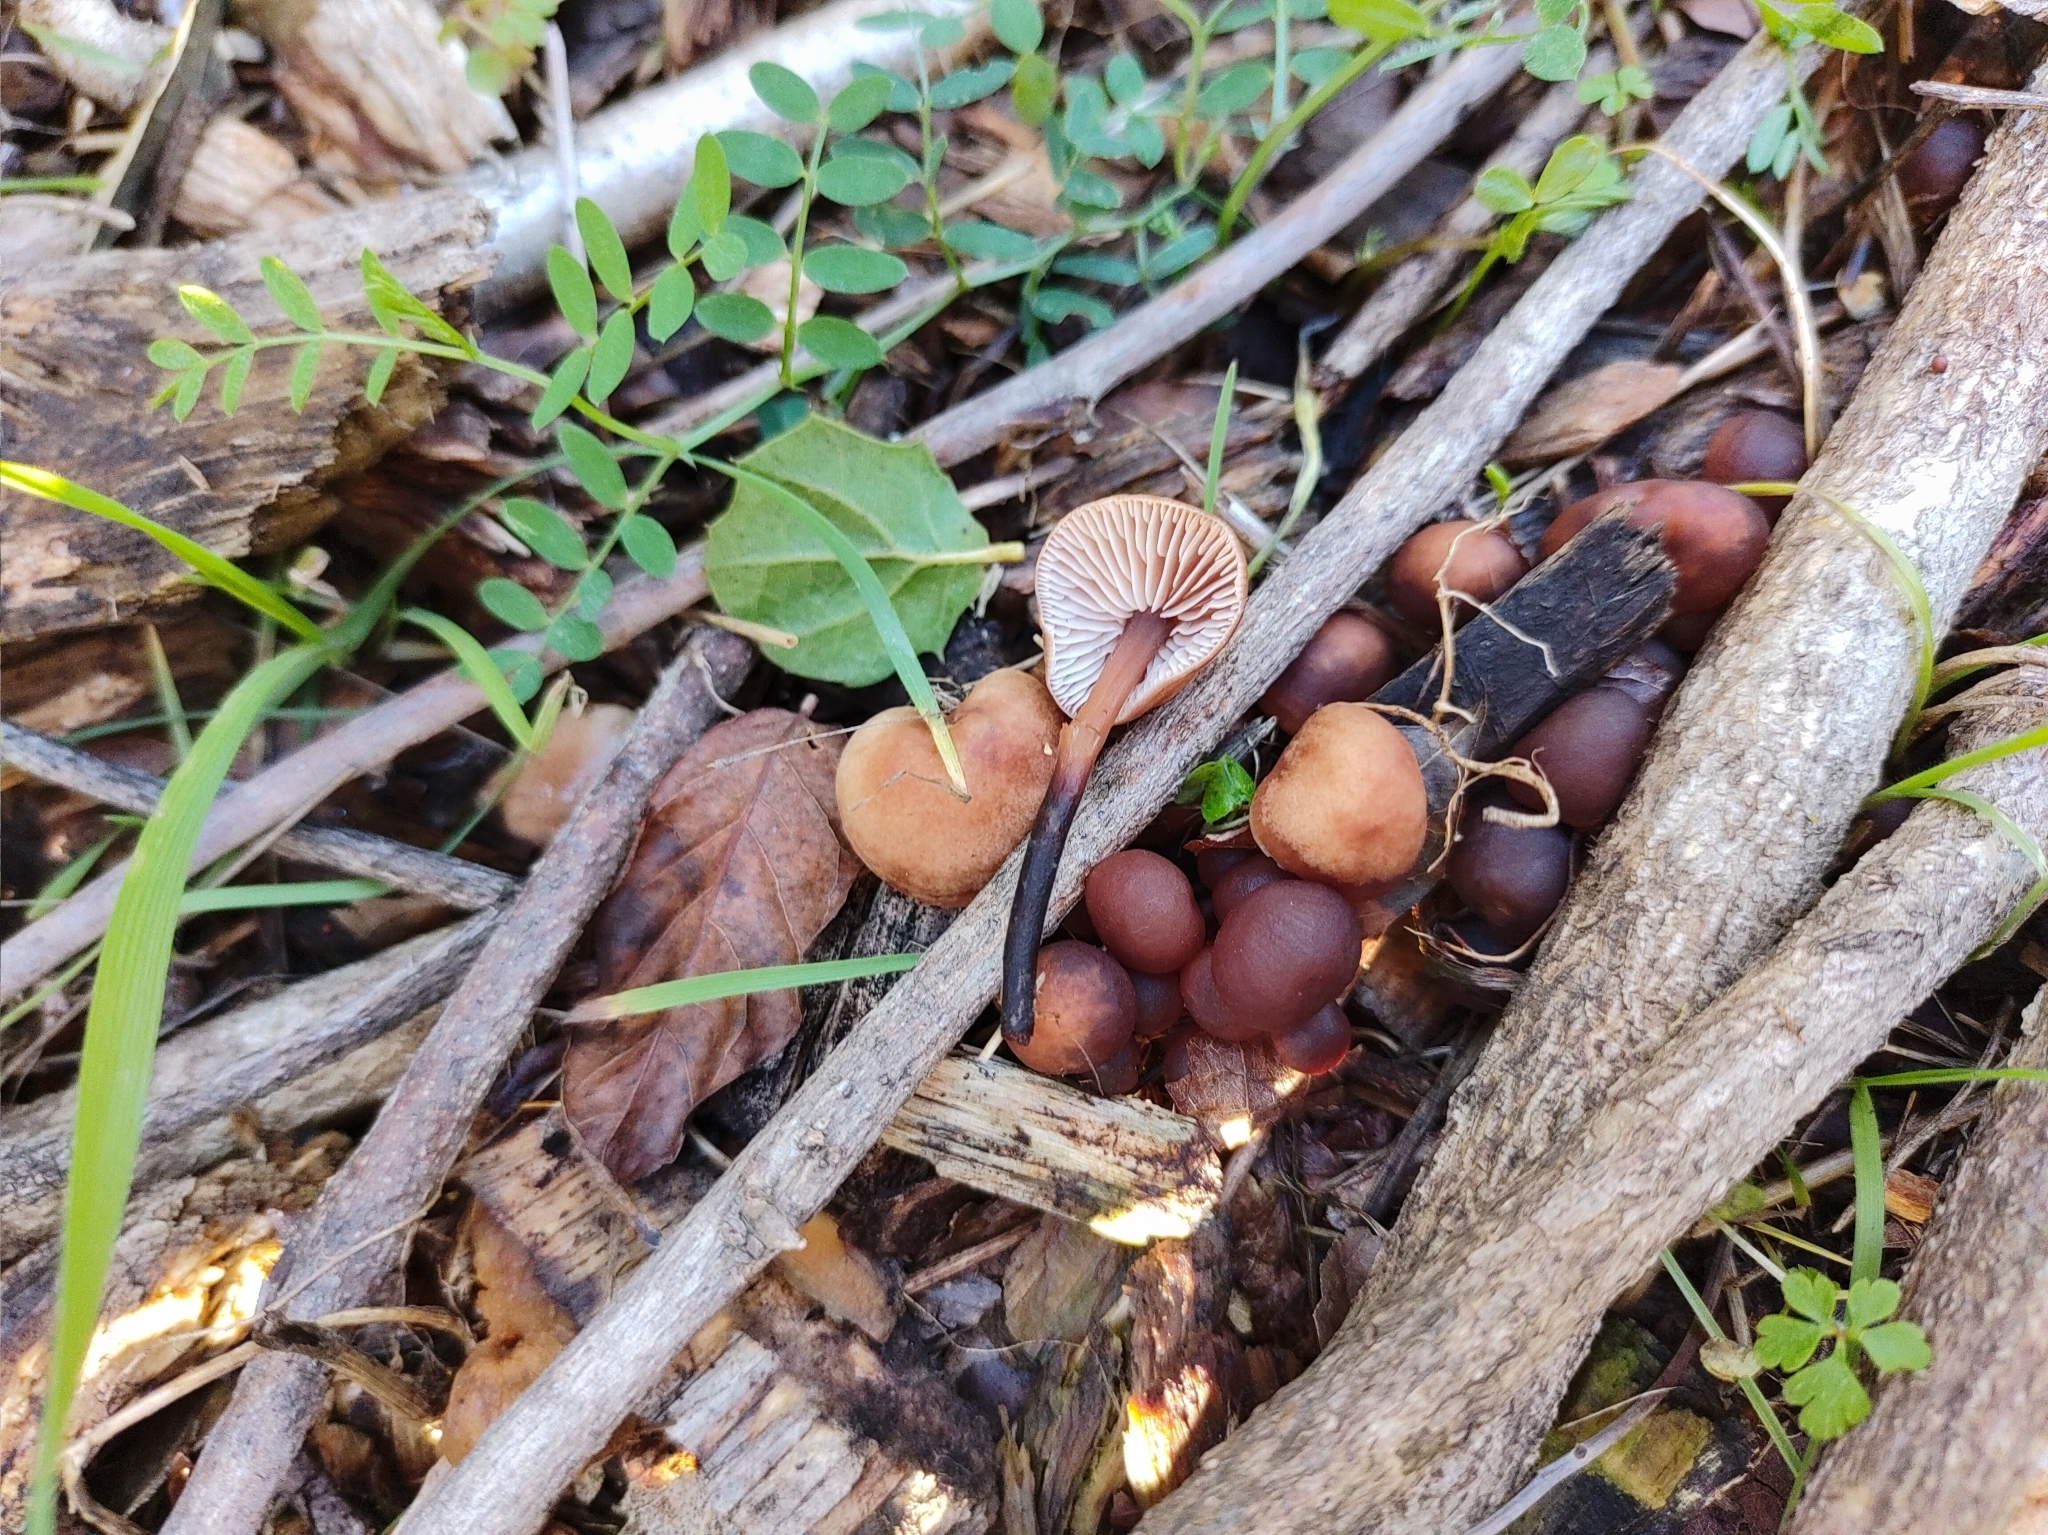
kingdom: Fungi
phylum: Basidiomycota
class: Agaricomycetes
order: Agaricales
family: Omphalotaceae
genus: Gymnopus
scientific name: Gymnopus brassicolens
